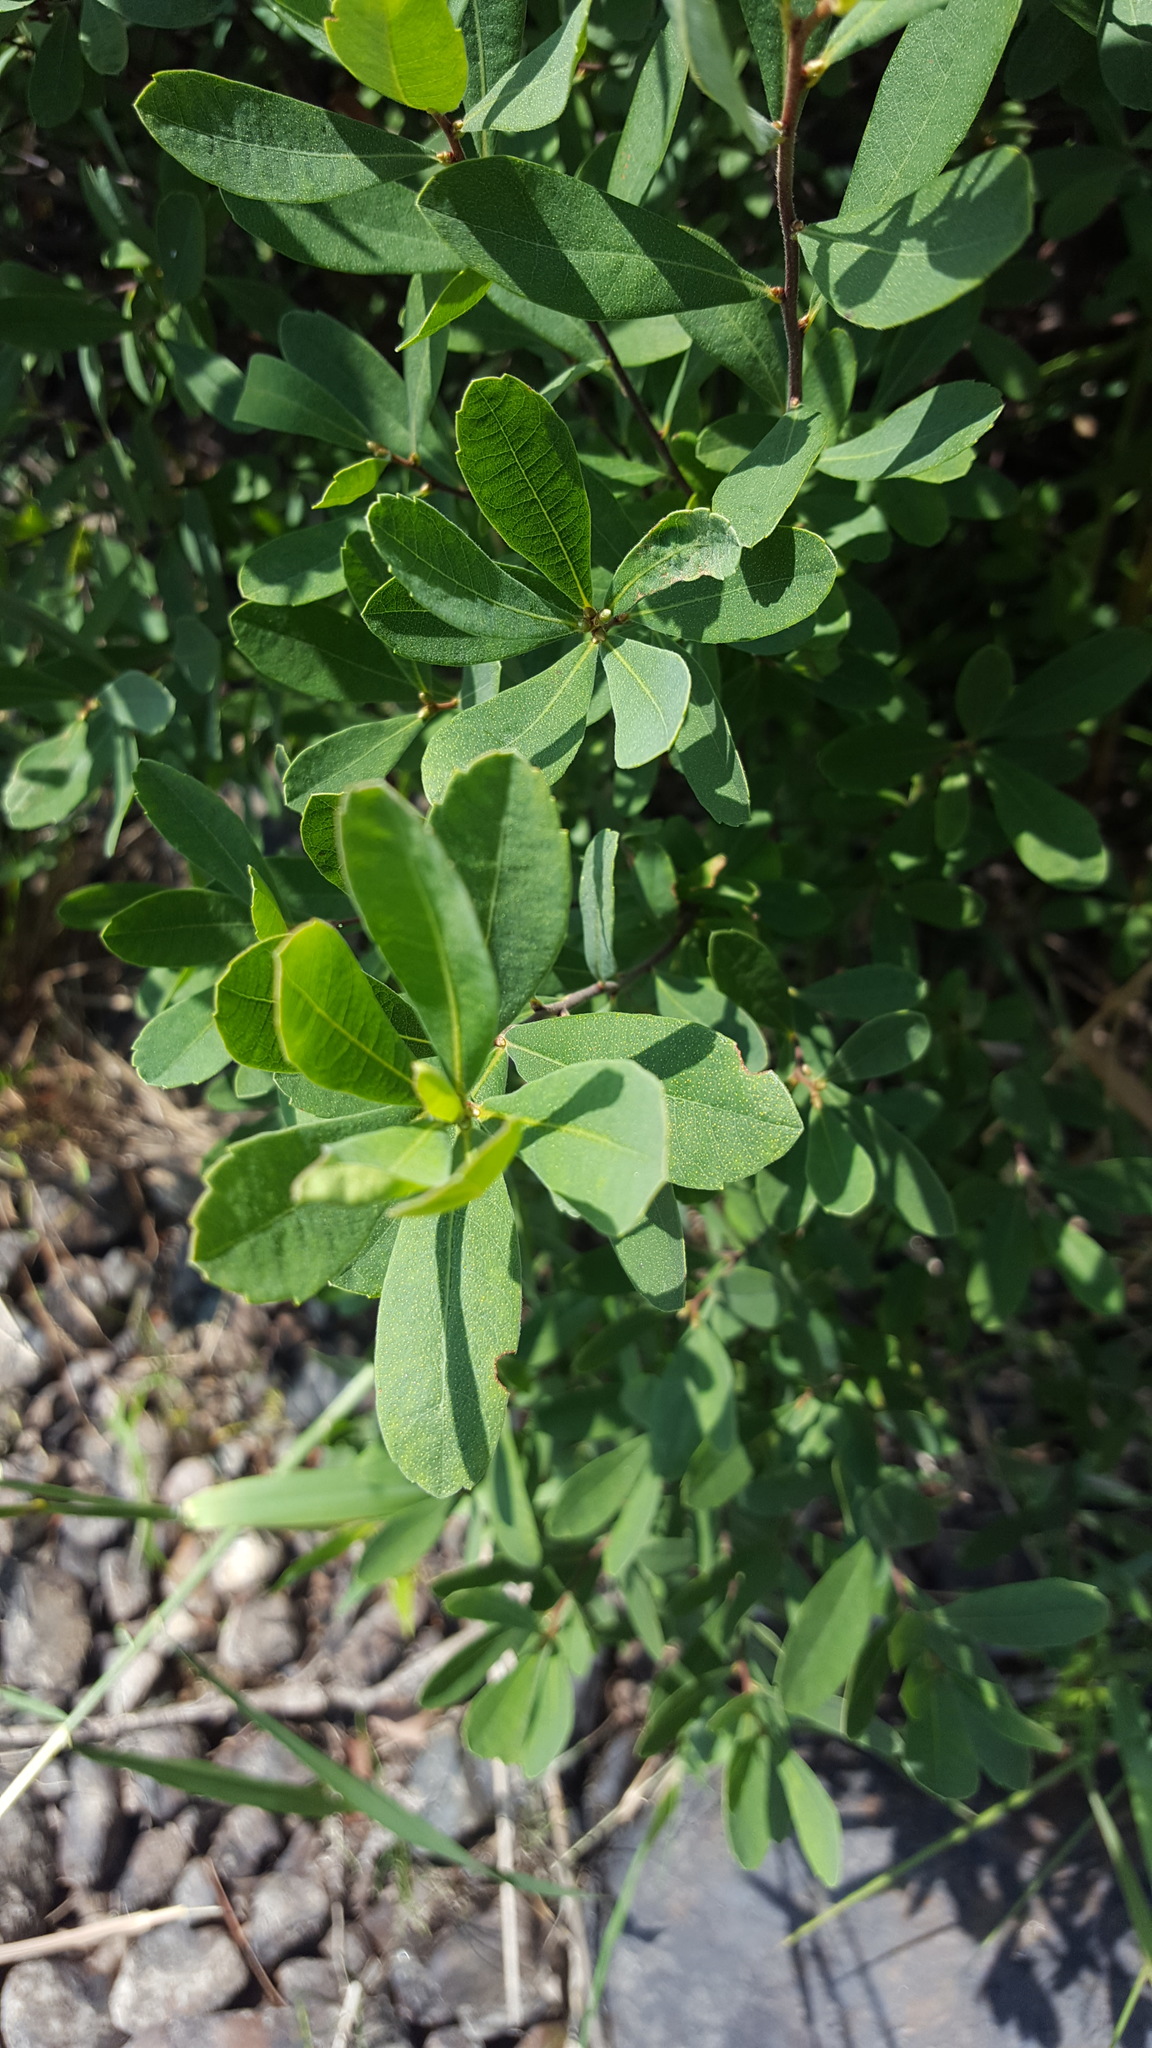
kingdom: Plantae
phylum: Tracheophyta
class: Magnoliopsida
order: Fagales
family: Myricaceae
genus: Myrica
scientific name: Myrica gale
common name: Sweet gale
